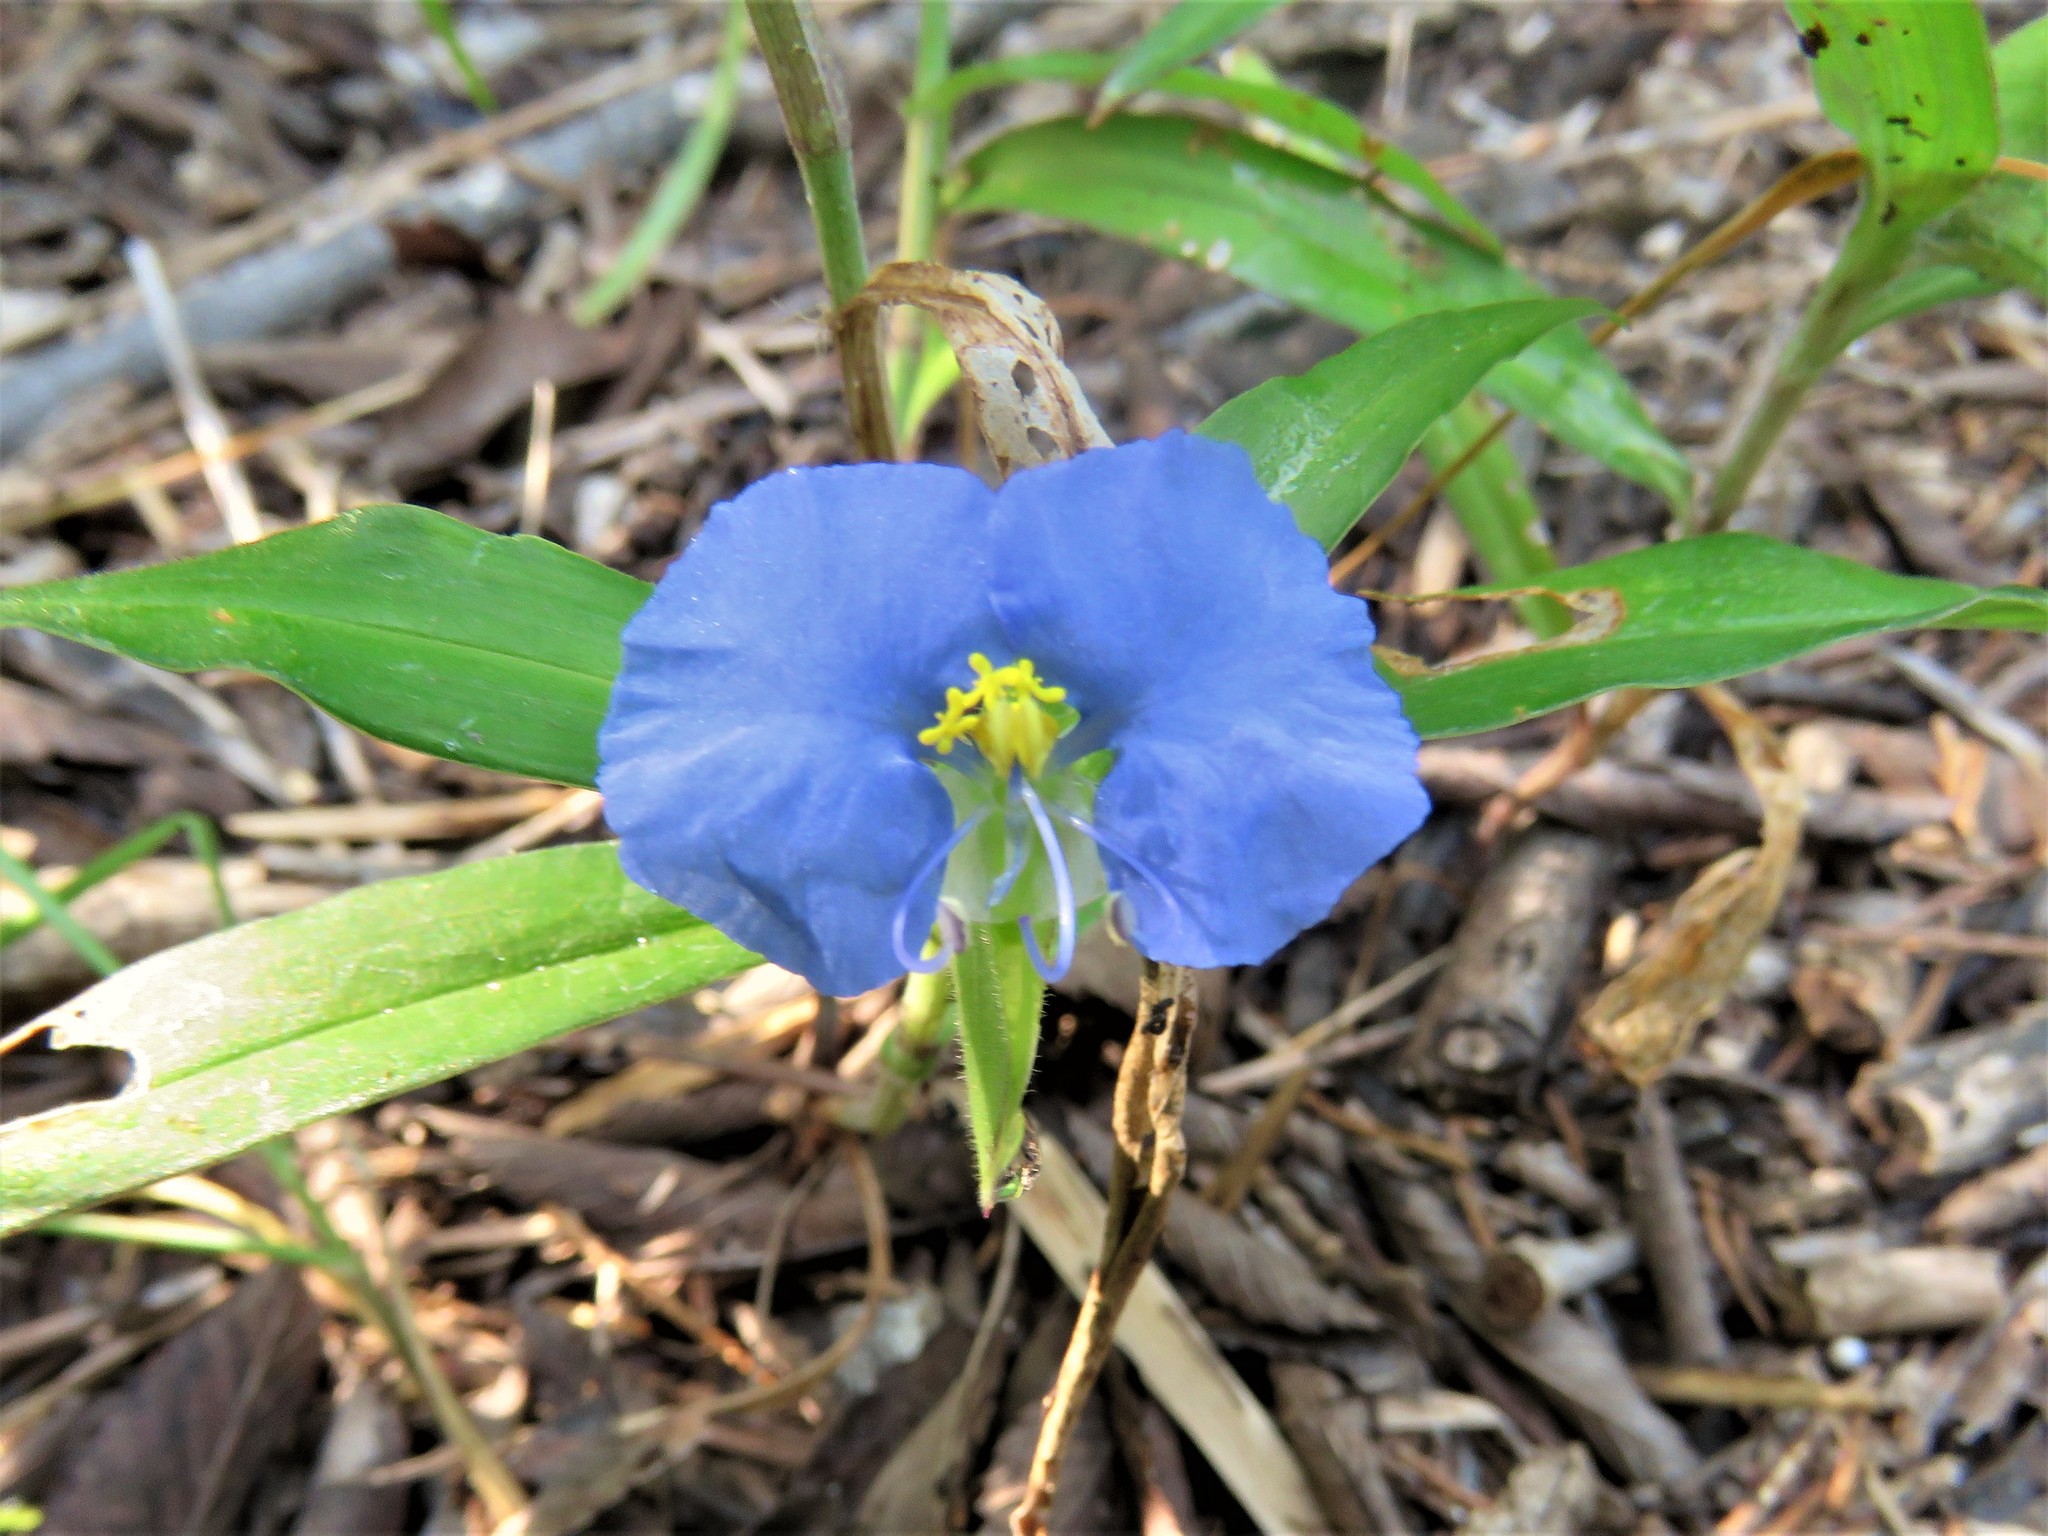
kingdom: Plantae
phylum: Tracheophyta
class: Liliopsida
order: Commelinales
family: Commelinaceae
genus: Commelina
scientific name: Commelina erecta
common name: Blousel blommetjie
